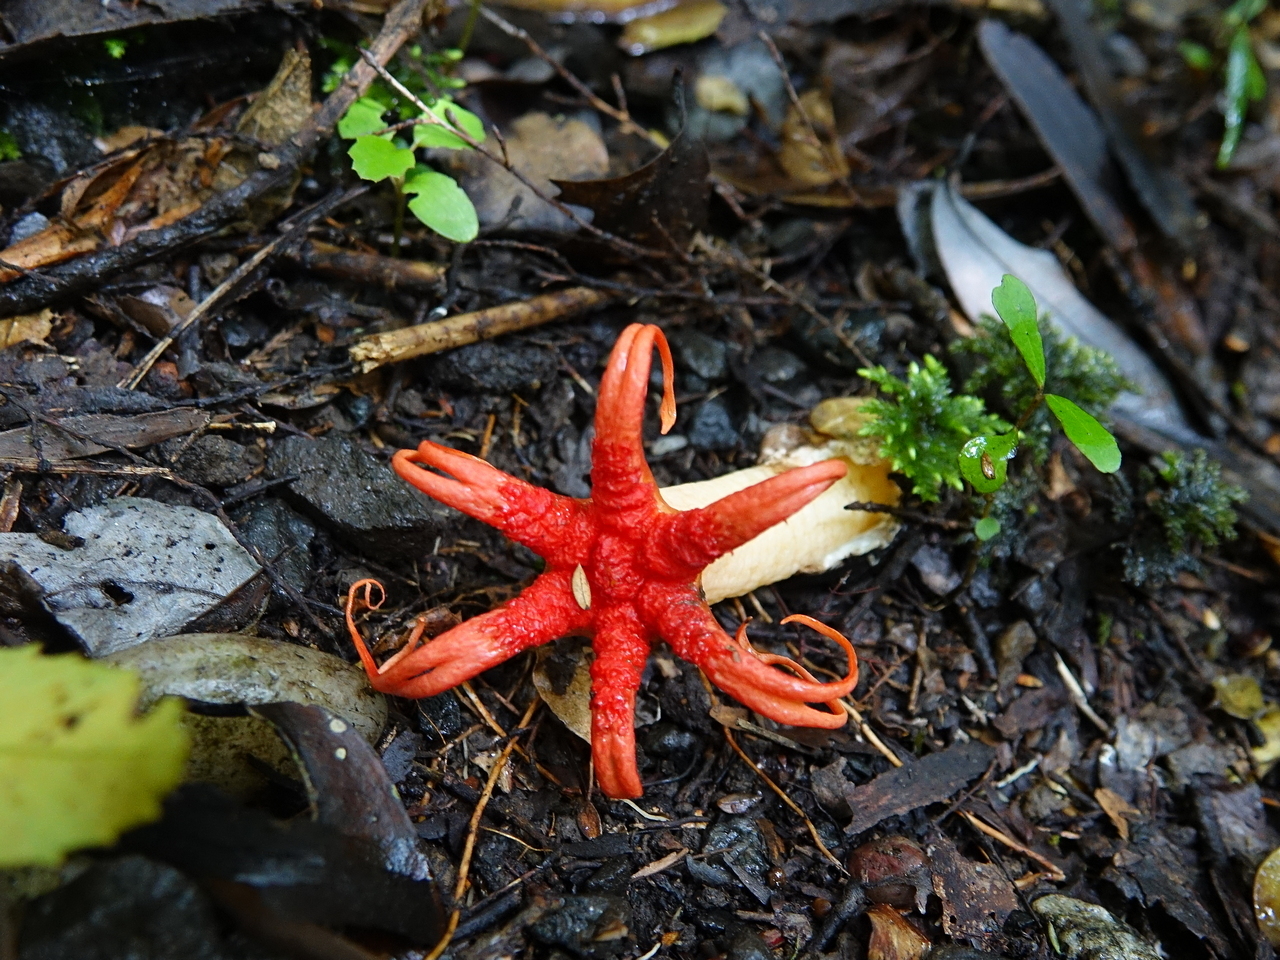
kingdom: Fungi
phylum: Basidiomycota
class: Agaricomycetes
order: Phallales
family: Phallaceae
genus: Aseroe
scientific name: Aseroe rubra
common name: Starfish fungus
